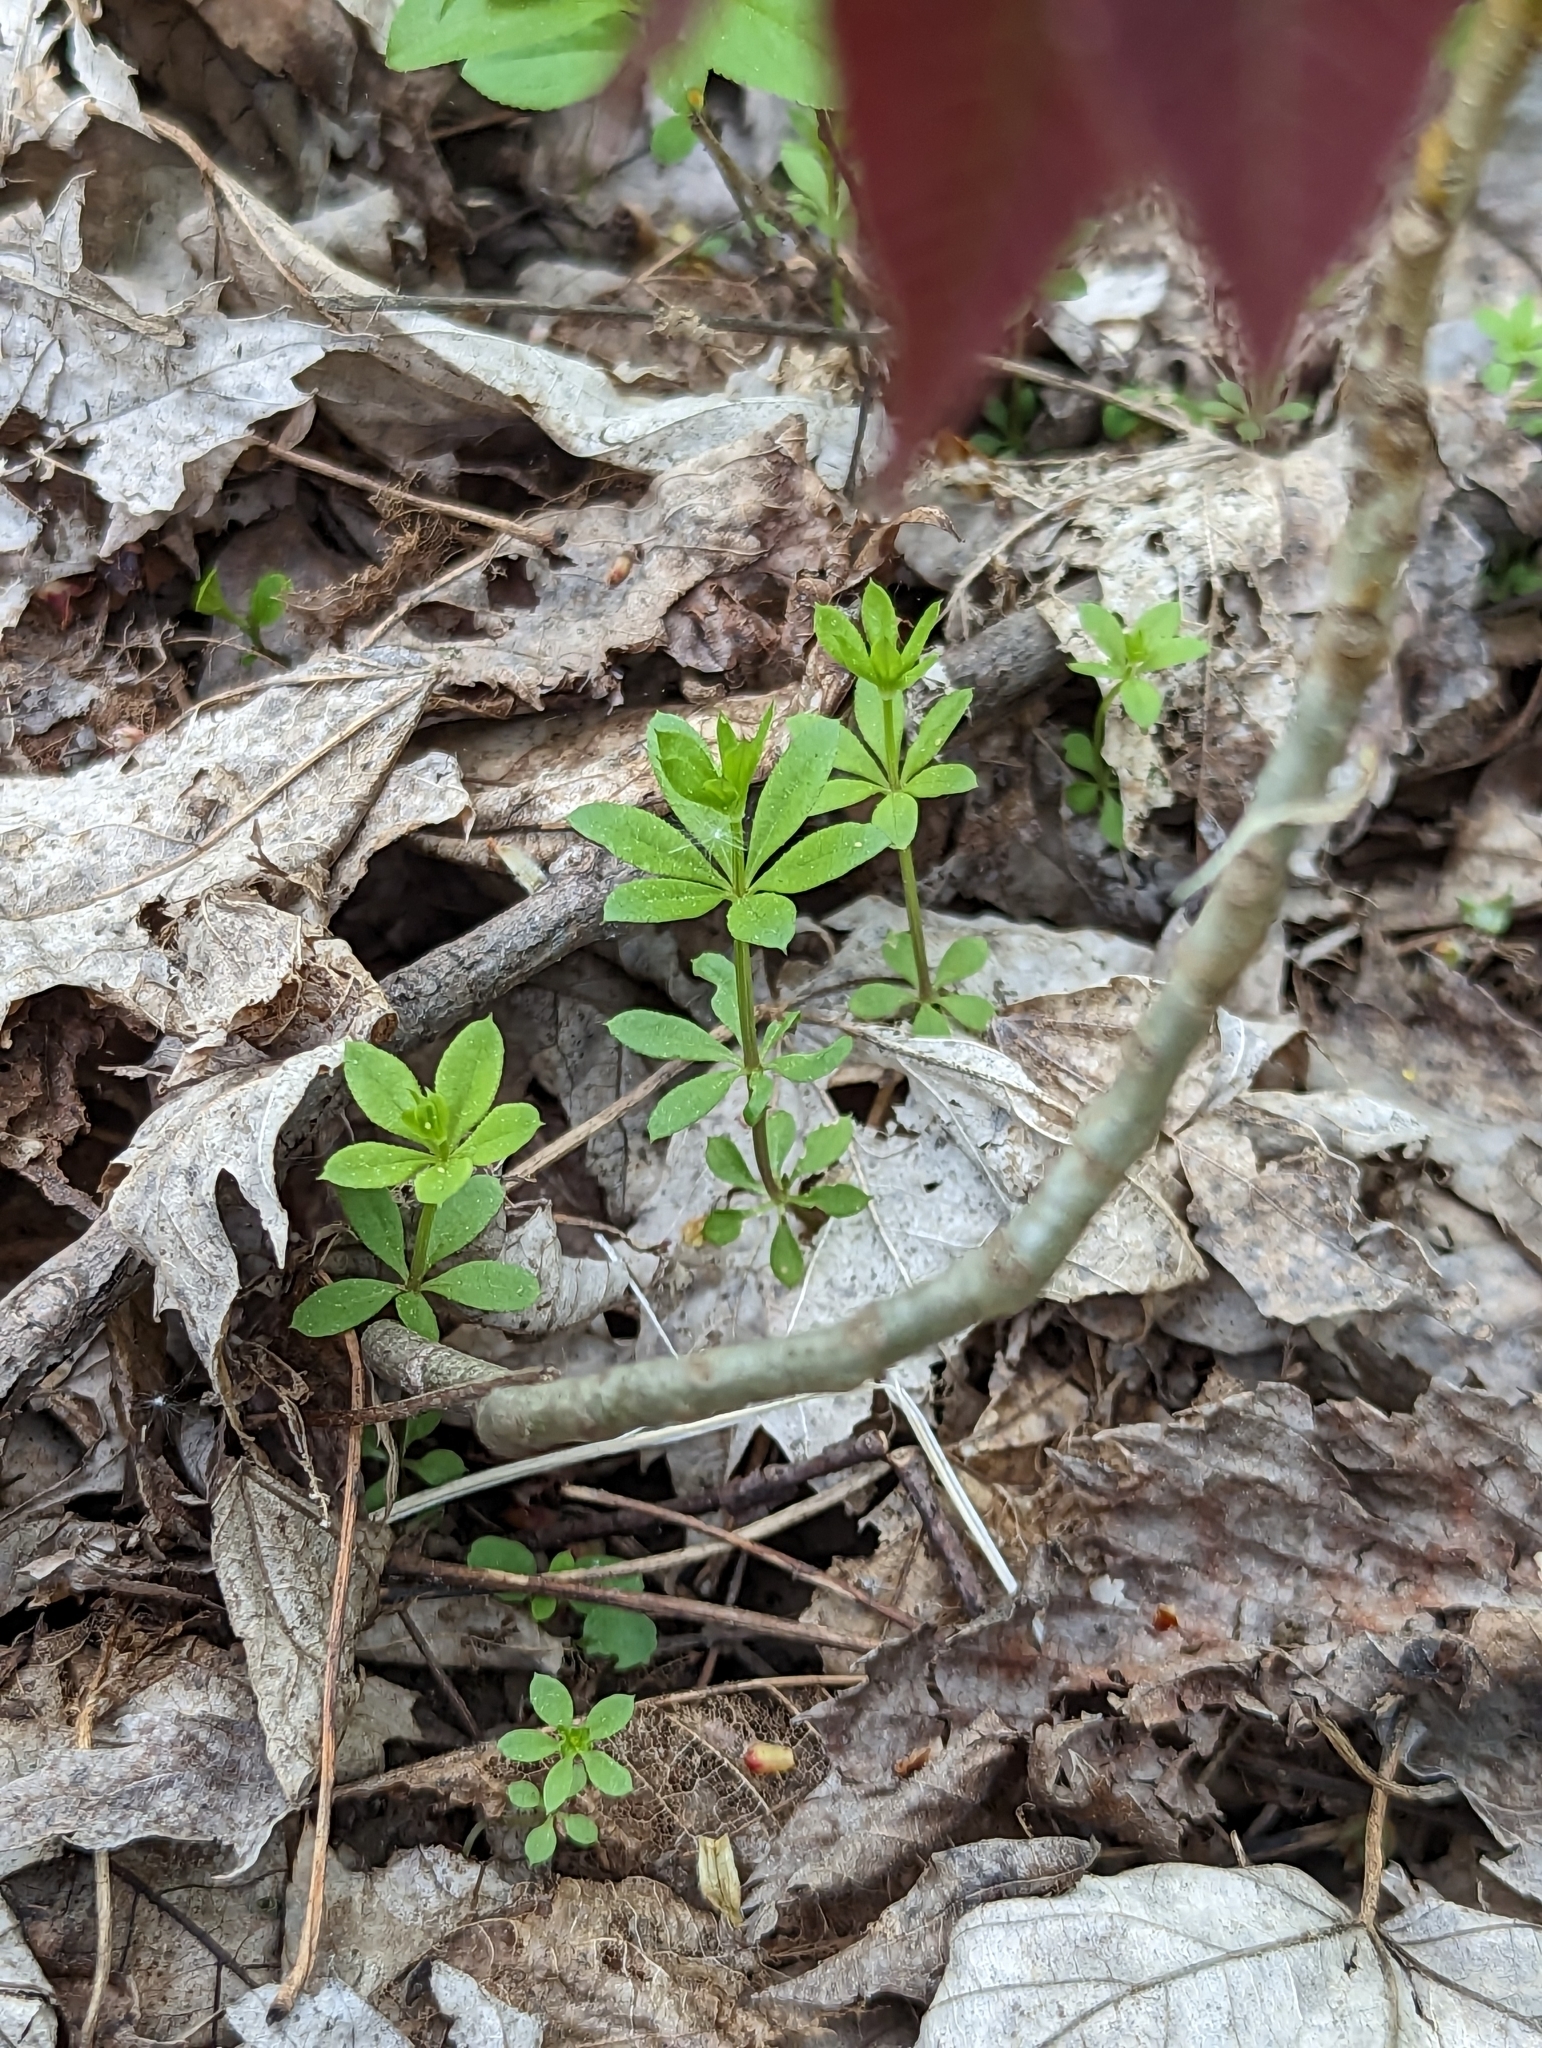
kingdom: Plantae
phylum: Tracheophyta
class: Magnoliopsida
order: Sapindales
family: Anacardiaceae
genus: Toxicodendron
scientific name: Toxicodendron radicans
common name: Poison ivy
